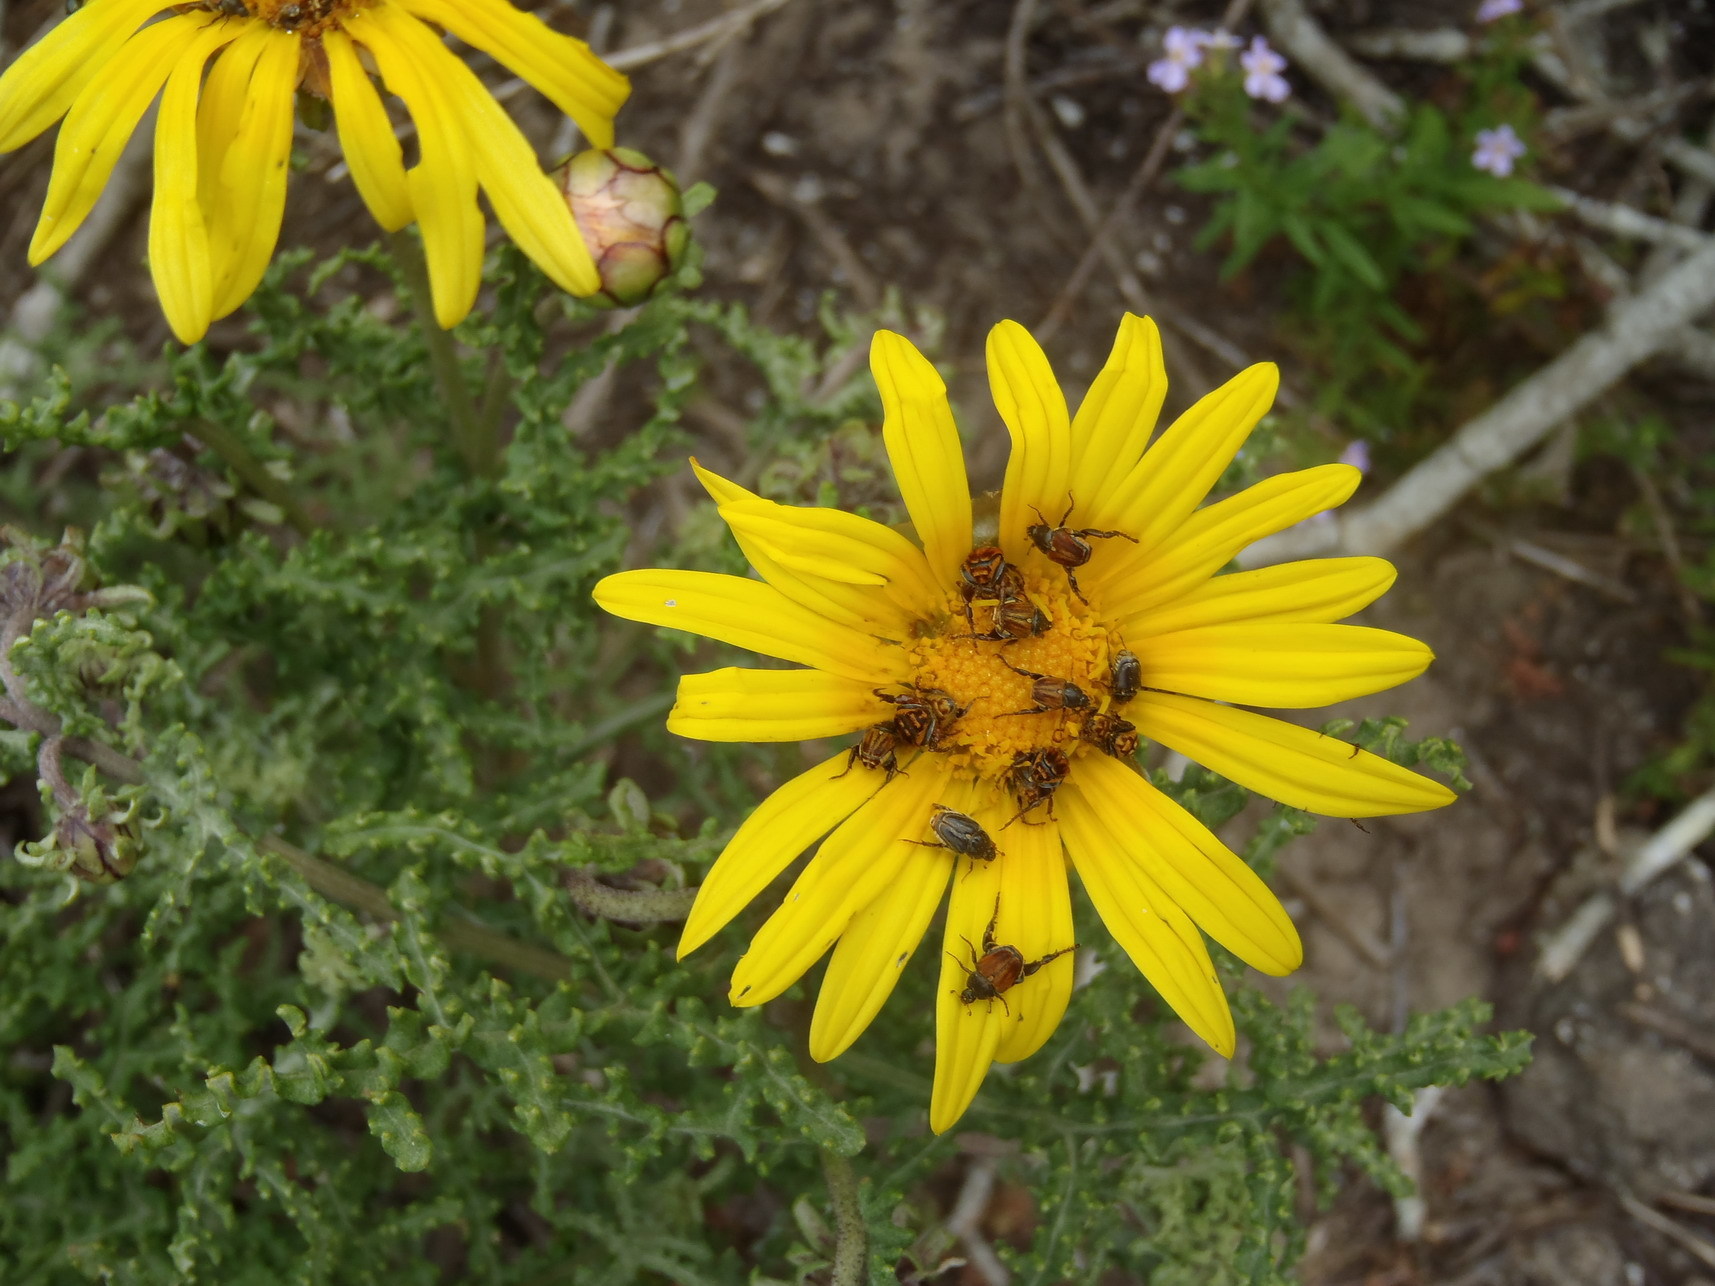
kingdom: Plantae
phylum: Tracheophyta
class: Magnoliopsida
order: Asterales
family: Asteraceae
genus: Arctotis
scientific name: Arctotis laciniata
